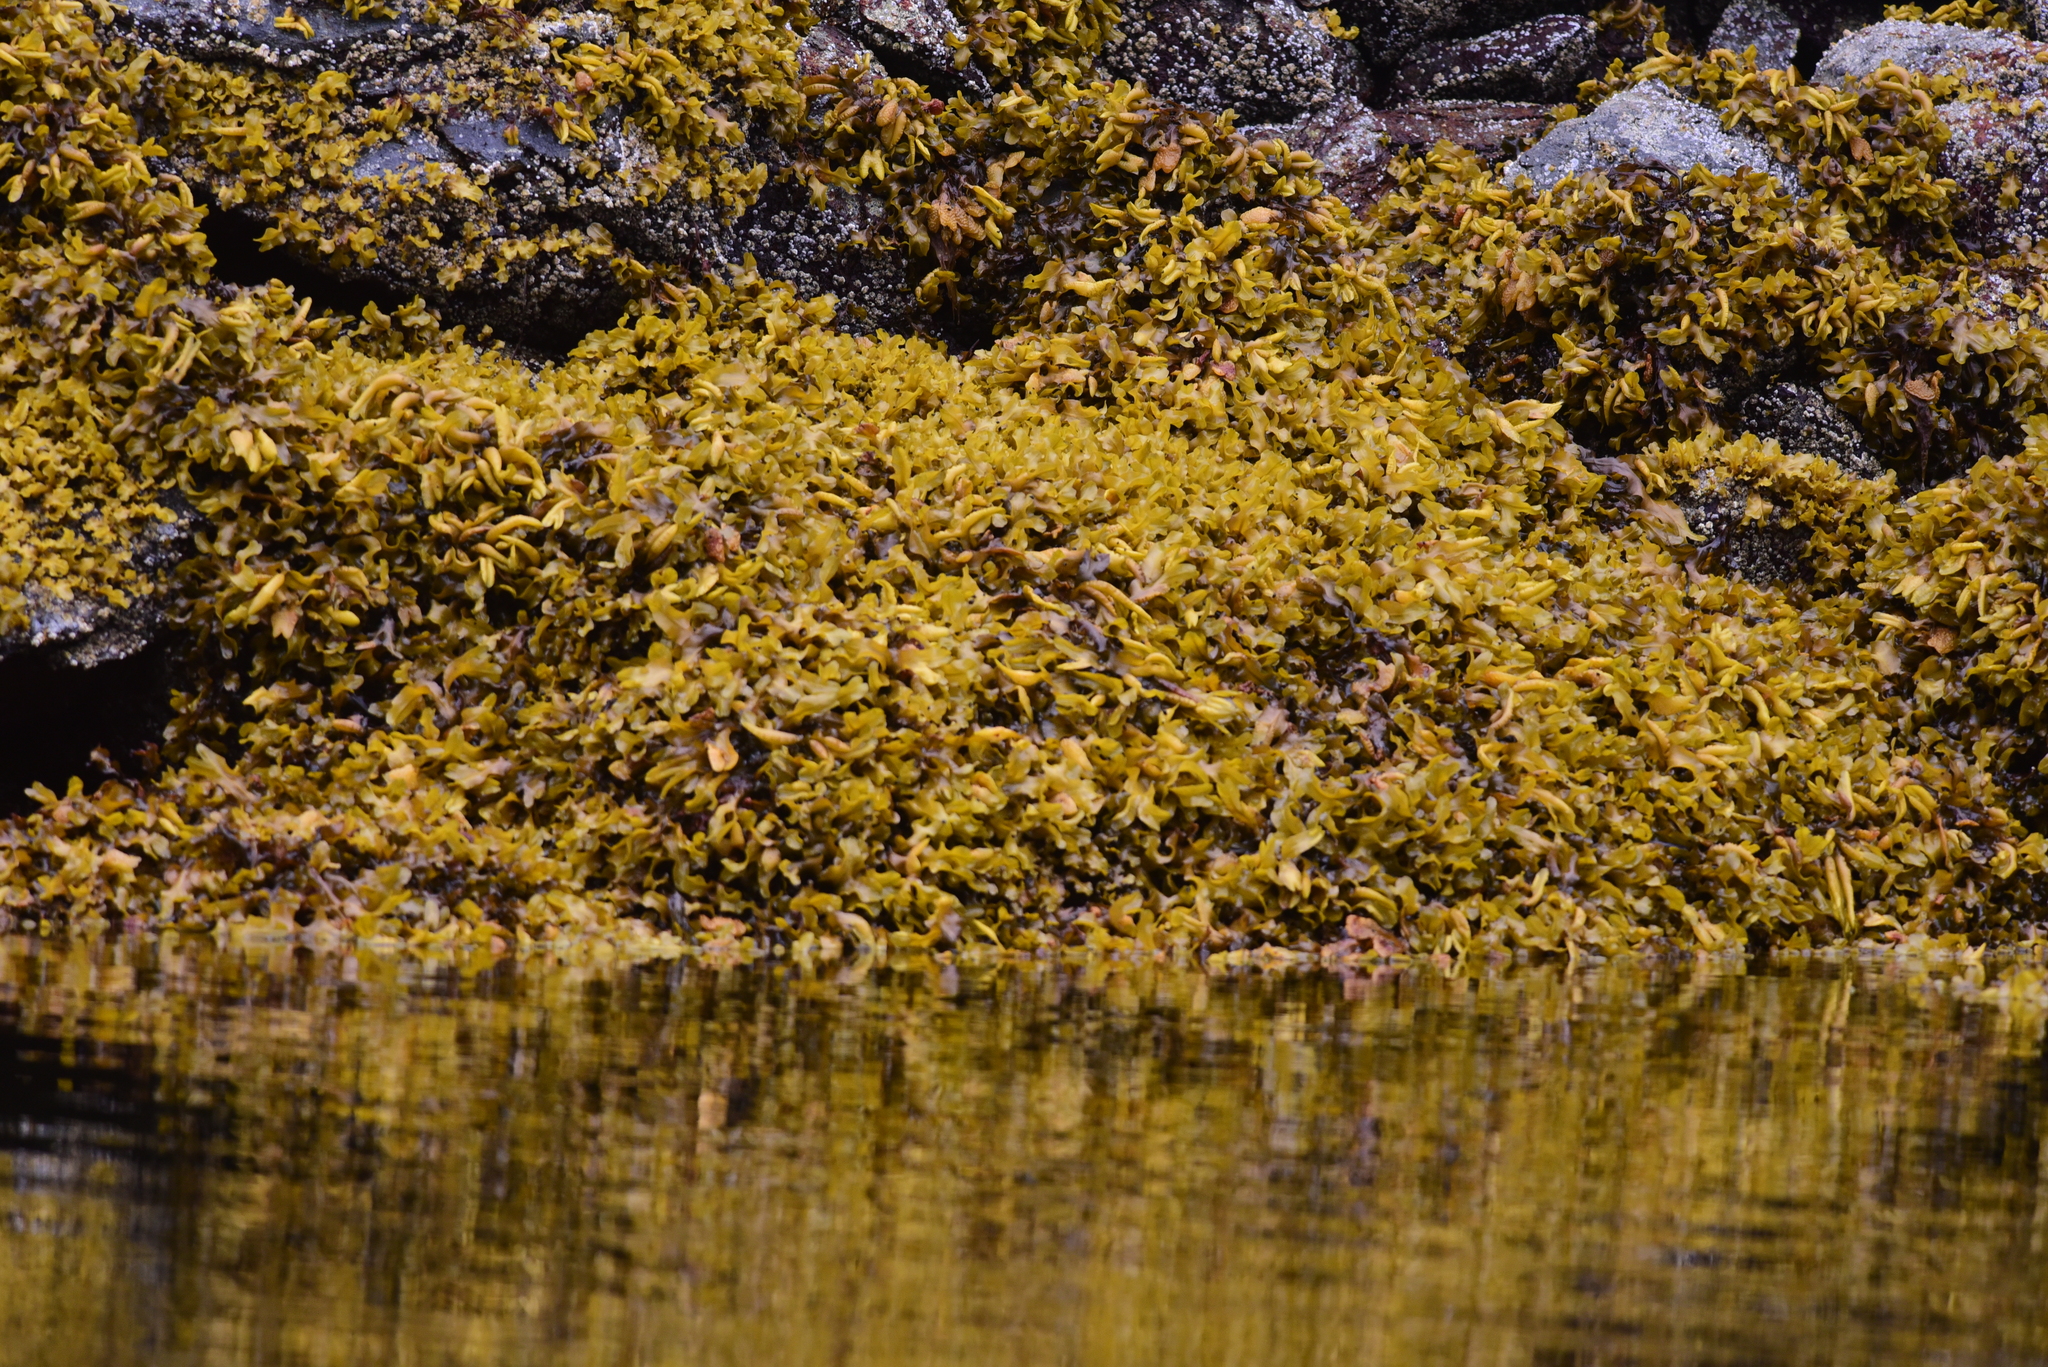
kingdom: Chromista
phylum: Ochrophyta
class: Phaeophyceae
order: Fucales
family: Fucaceae
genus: Fucus
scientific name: Fucus distichus
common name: Rockweed
